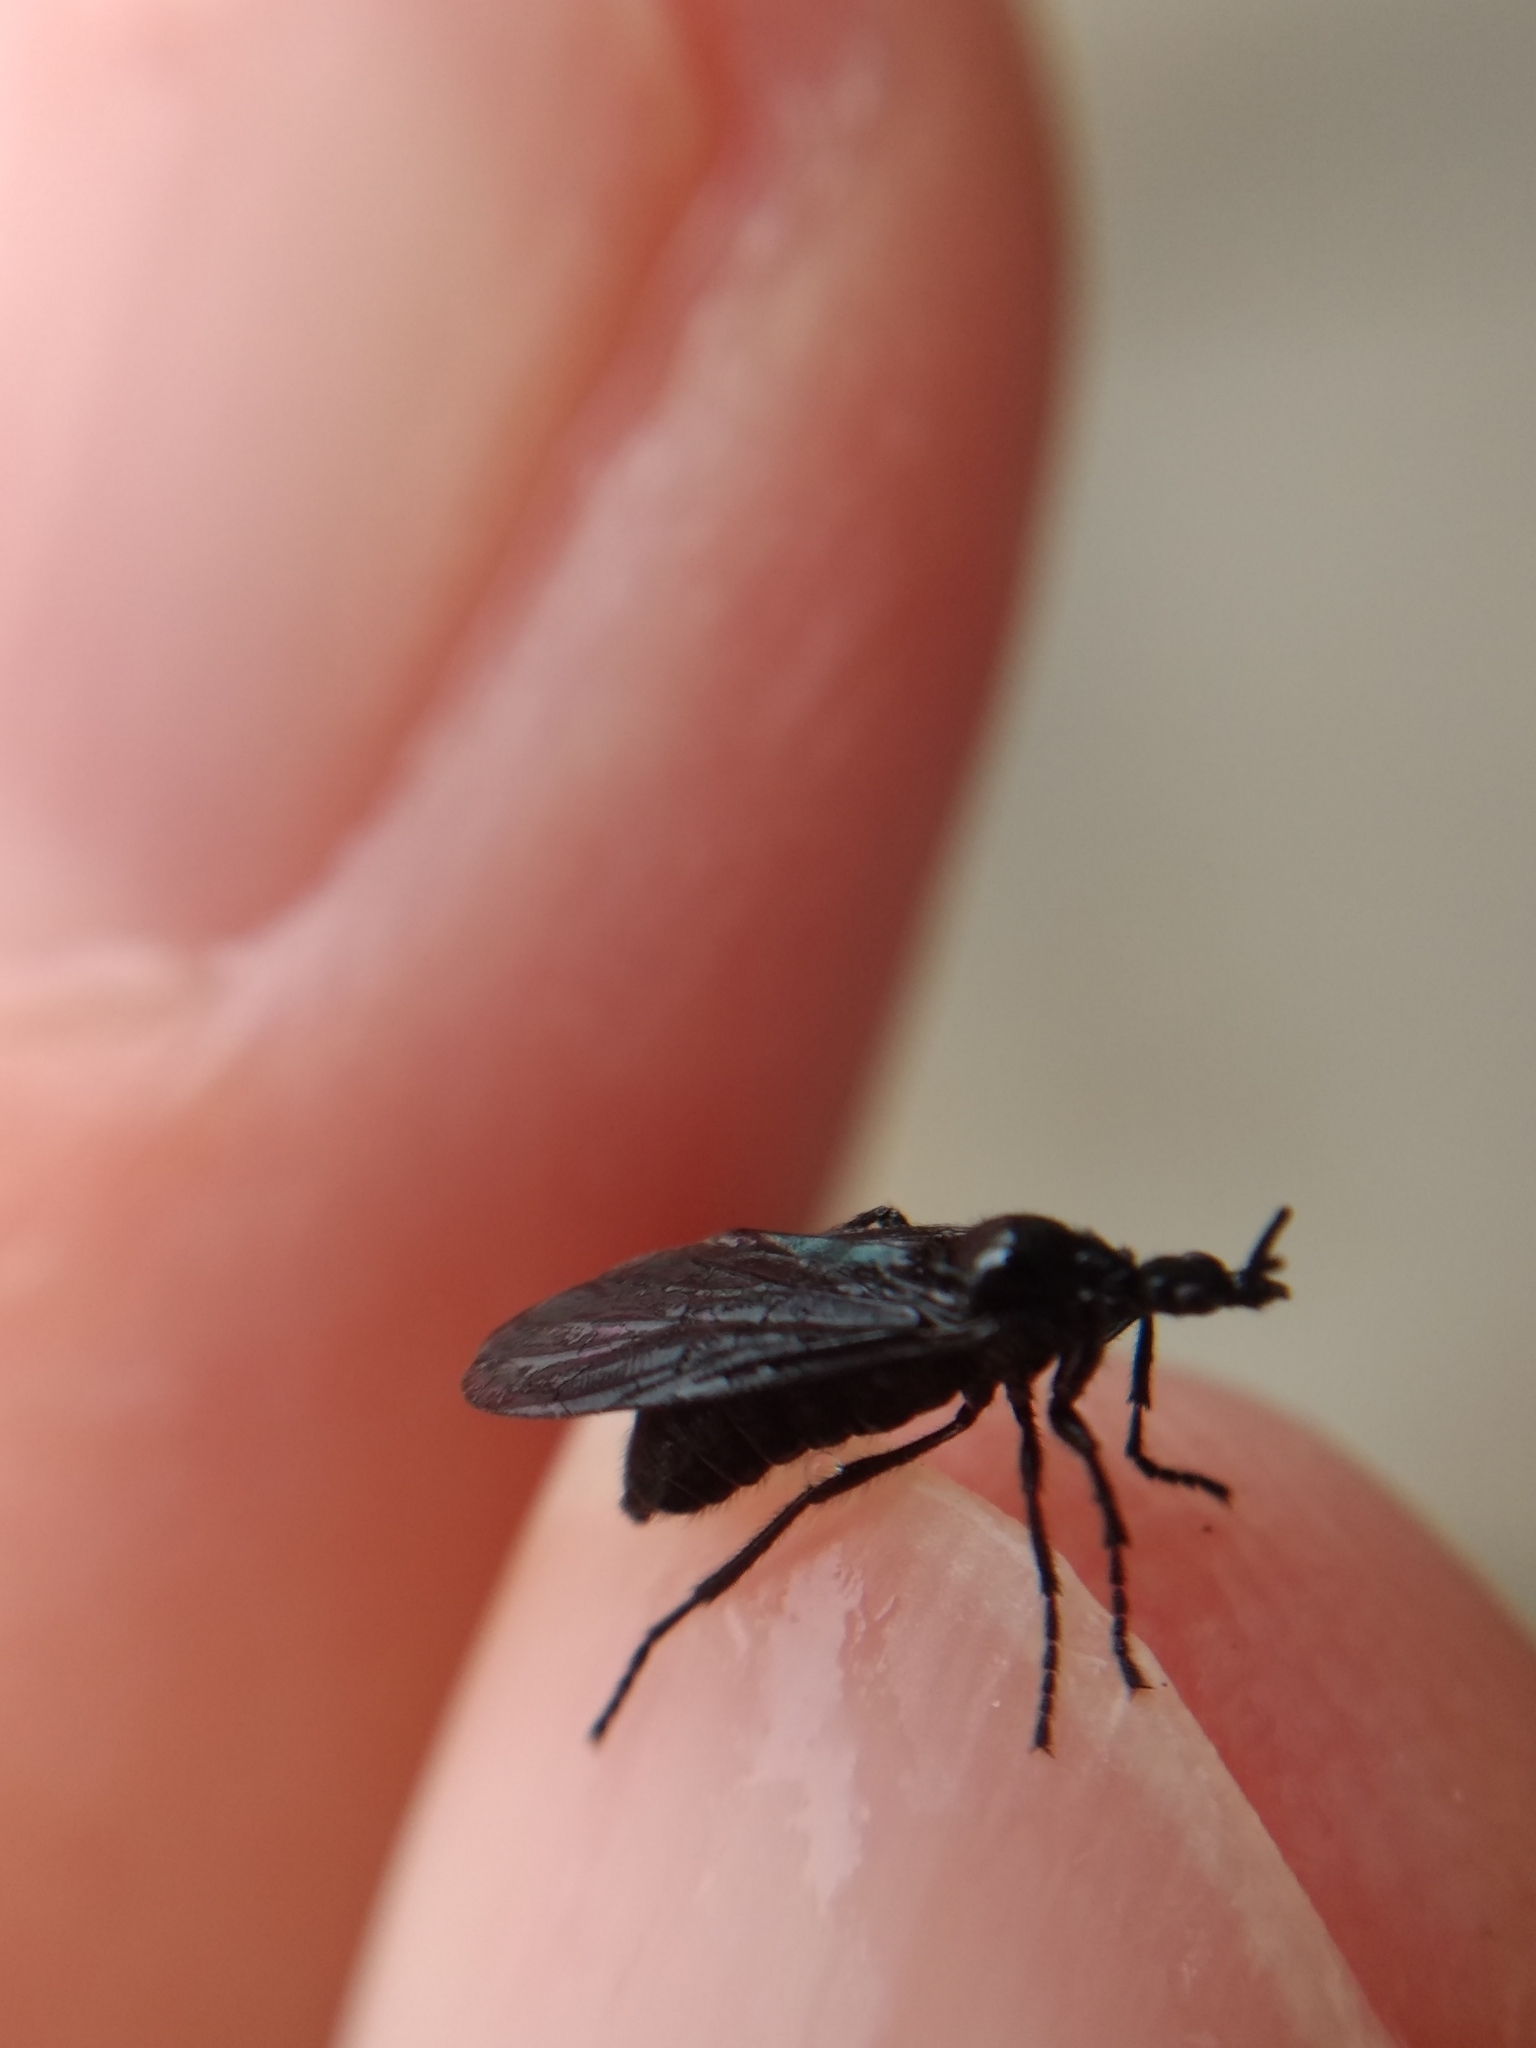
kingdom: Animalia
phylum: Arthropoda
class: Insecta
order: Diptera
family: Bibionidae
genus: Dilophus
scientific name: Dilophus orbatus
